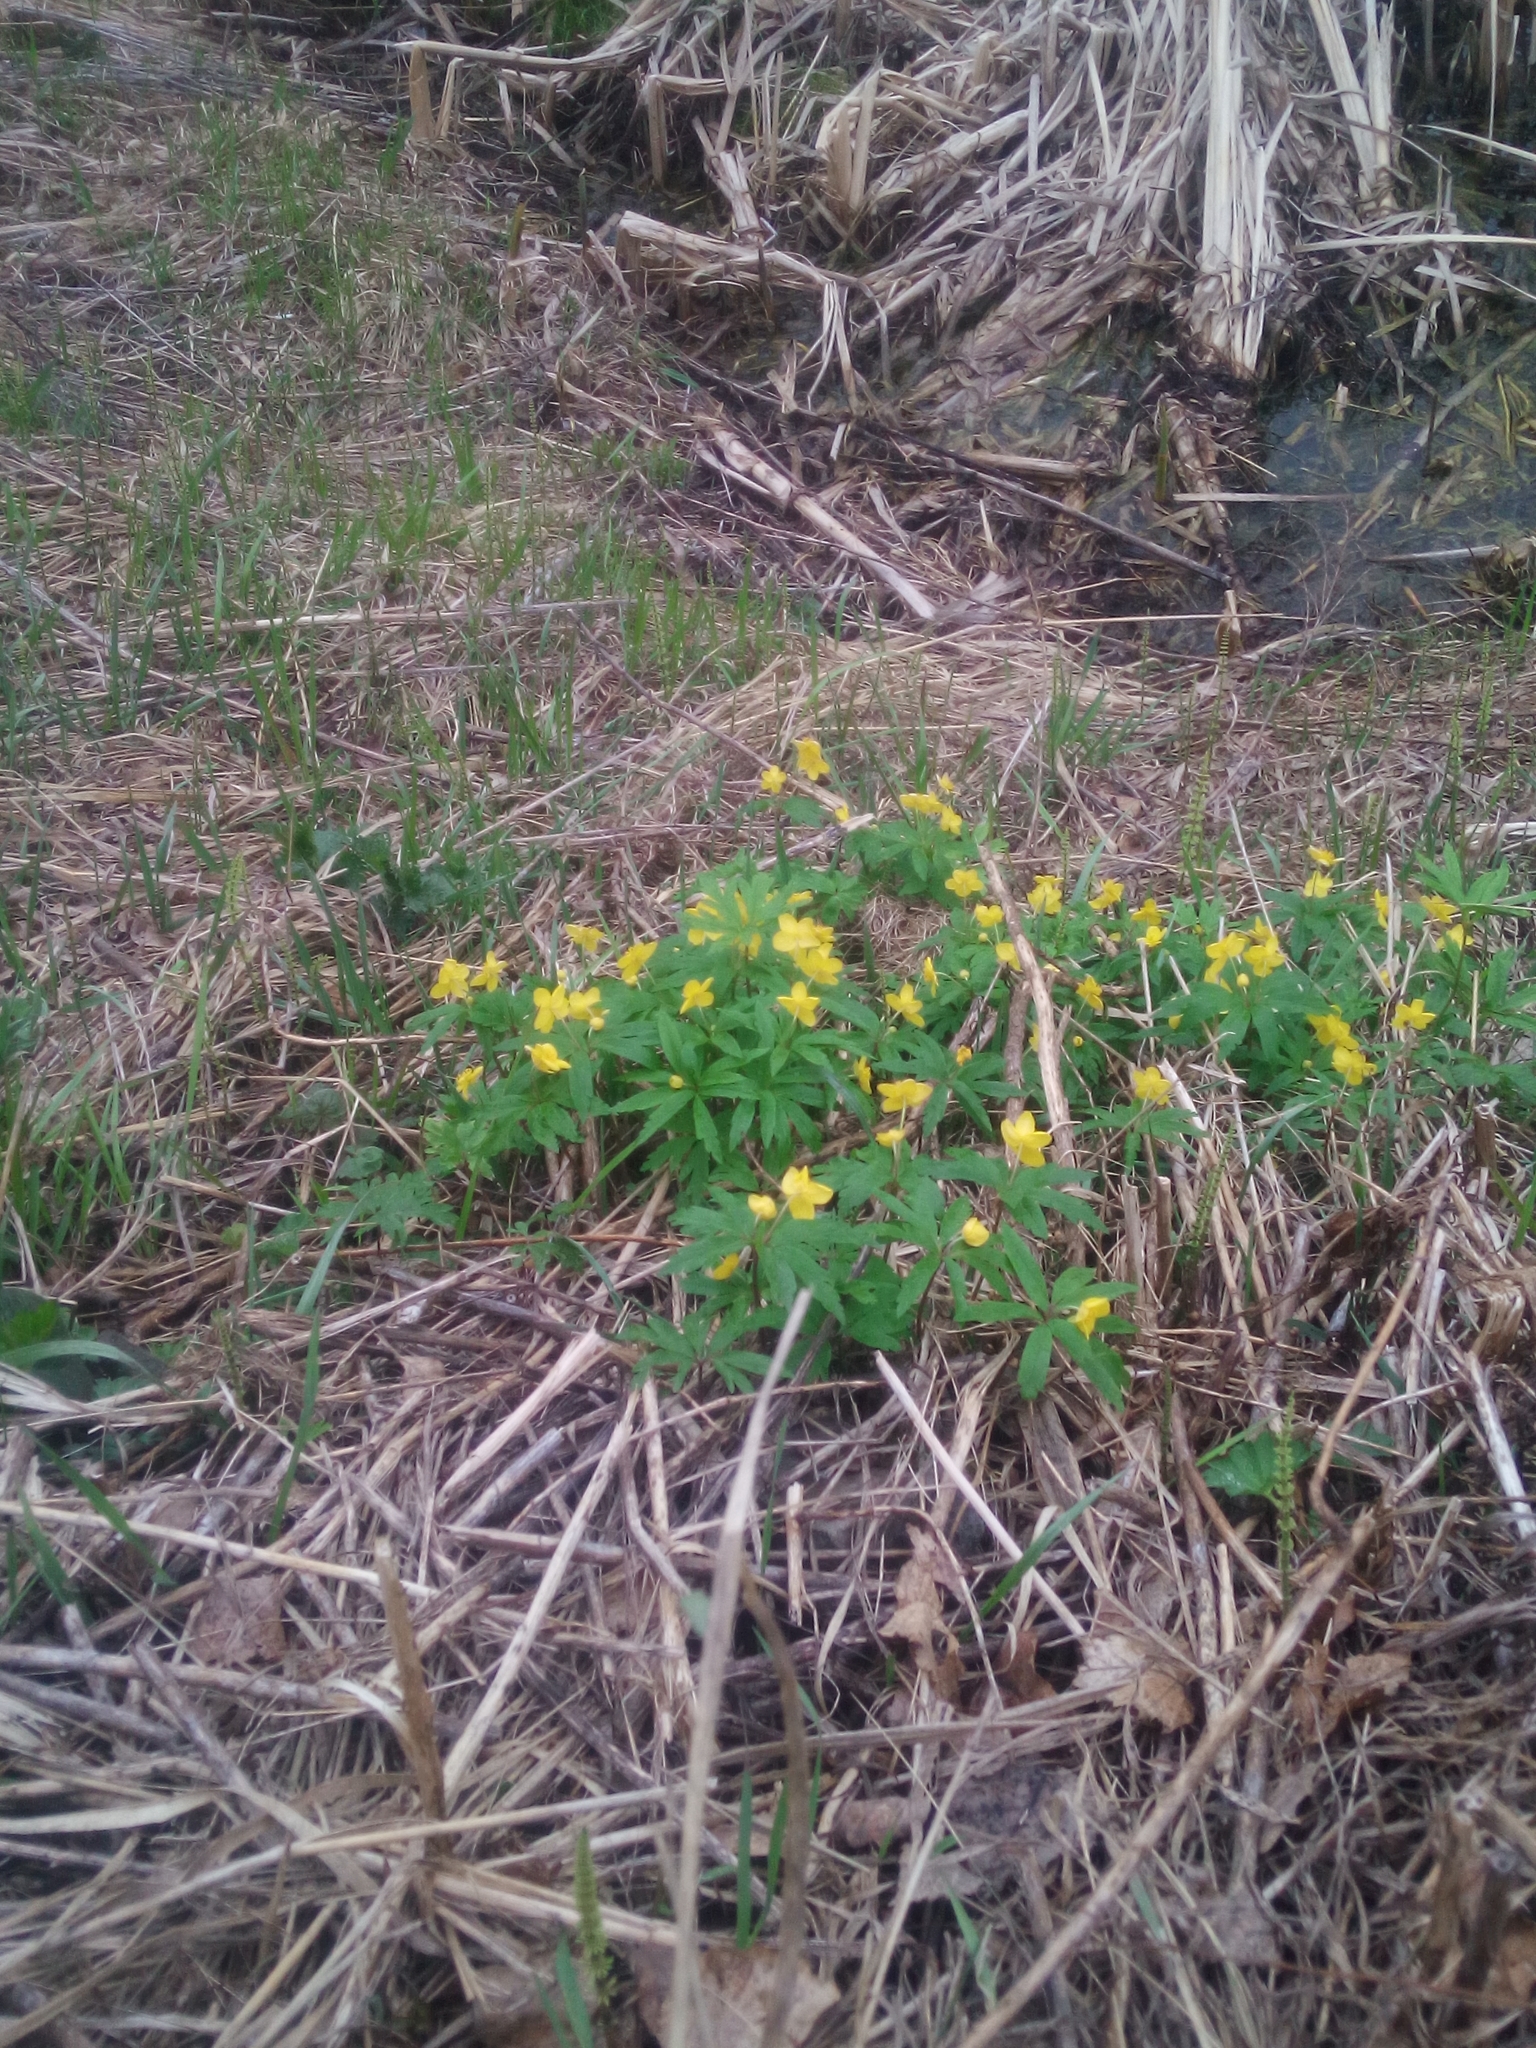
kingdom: Plantae
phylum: Tracheophyta
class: Magnoliopsida
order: Ranunculales
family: Ranunculaceae
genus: Anemone
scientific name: Anemone ranunculoides
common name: Yellow anemone
